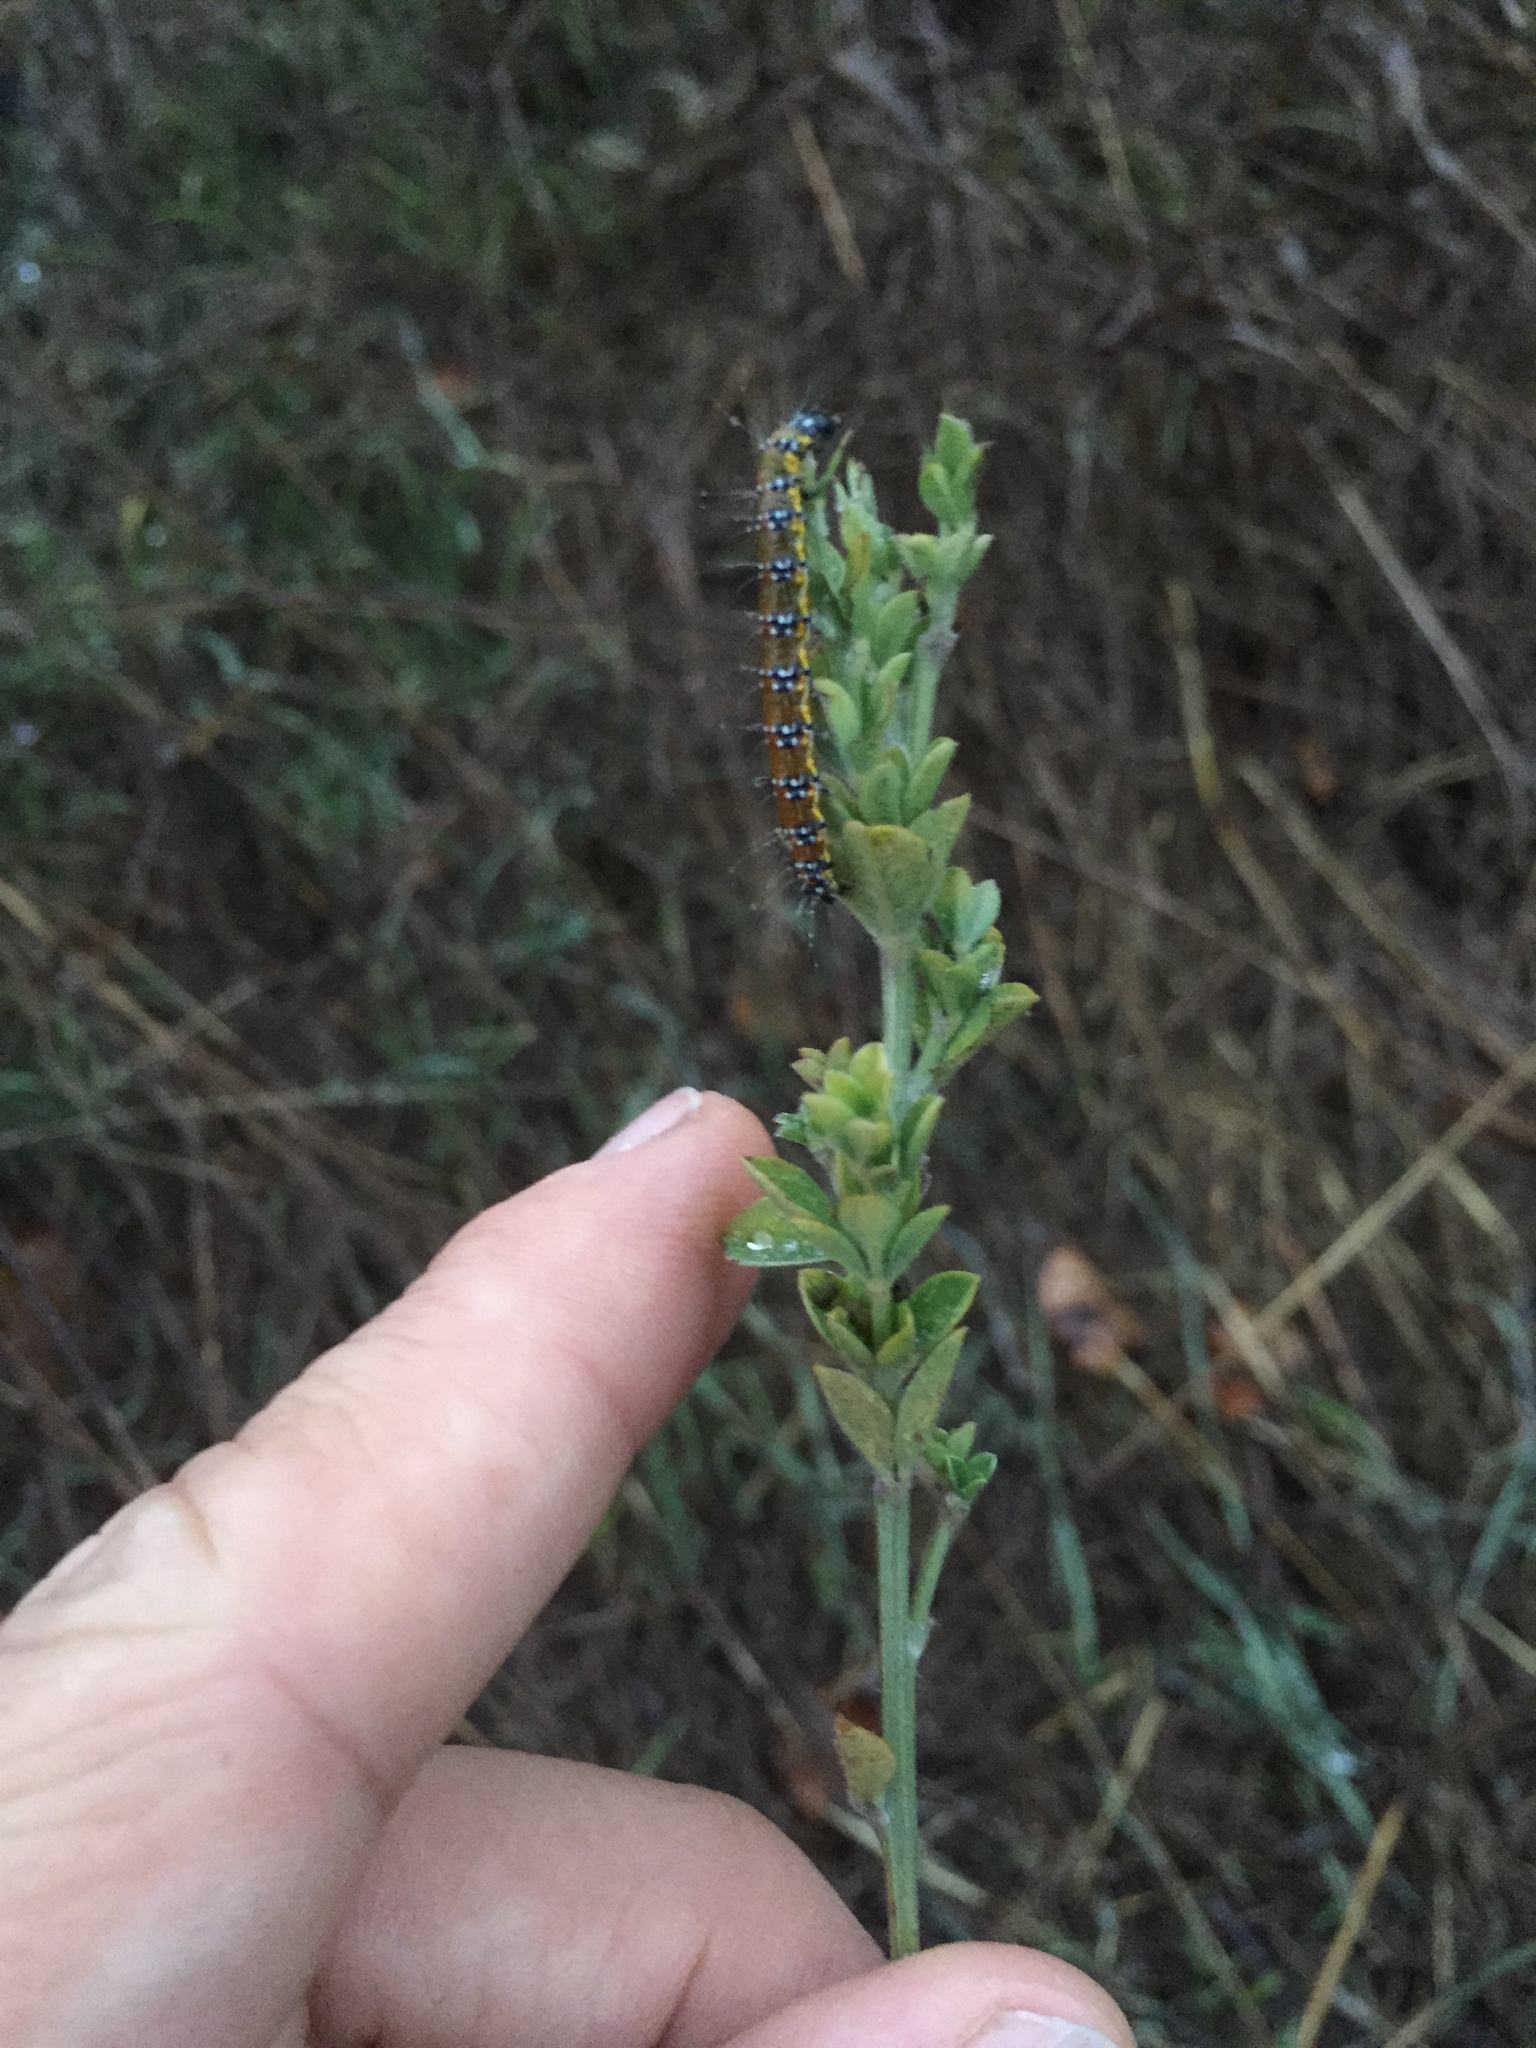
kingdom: Animalia
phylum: Arthropoda
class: Insecta
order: Lepidoptera
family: Crambidae
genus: Uresiphita
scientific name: Uresiphita reversalis
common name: Genista broom moth
